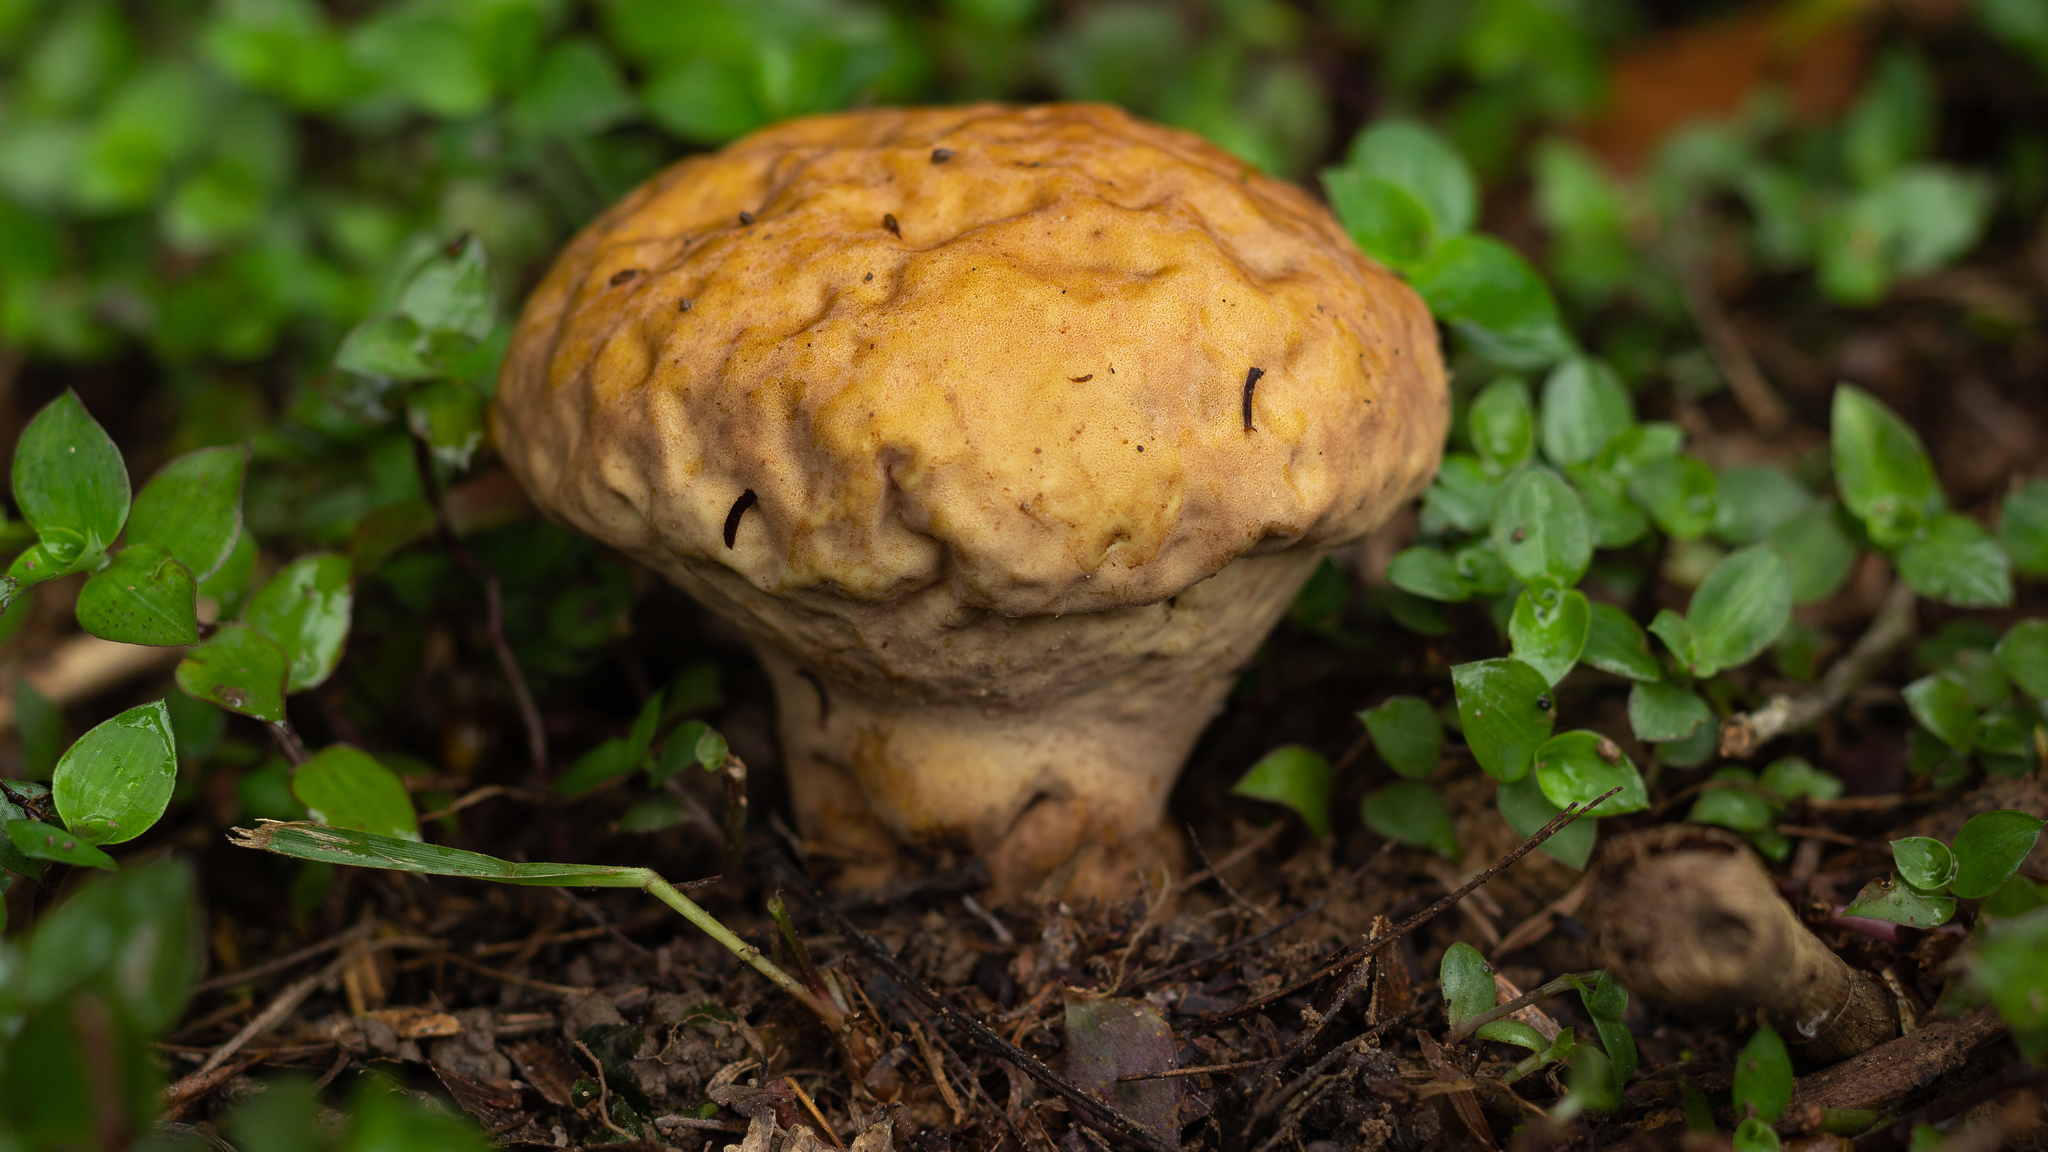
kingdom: Fungi
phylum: Basidiomycota
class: Agaricomycetes
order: Agaricales
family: Lycoperdaceae
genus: Calvatia
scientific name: Calvatia rugosa
